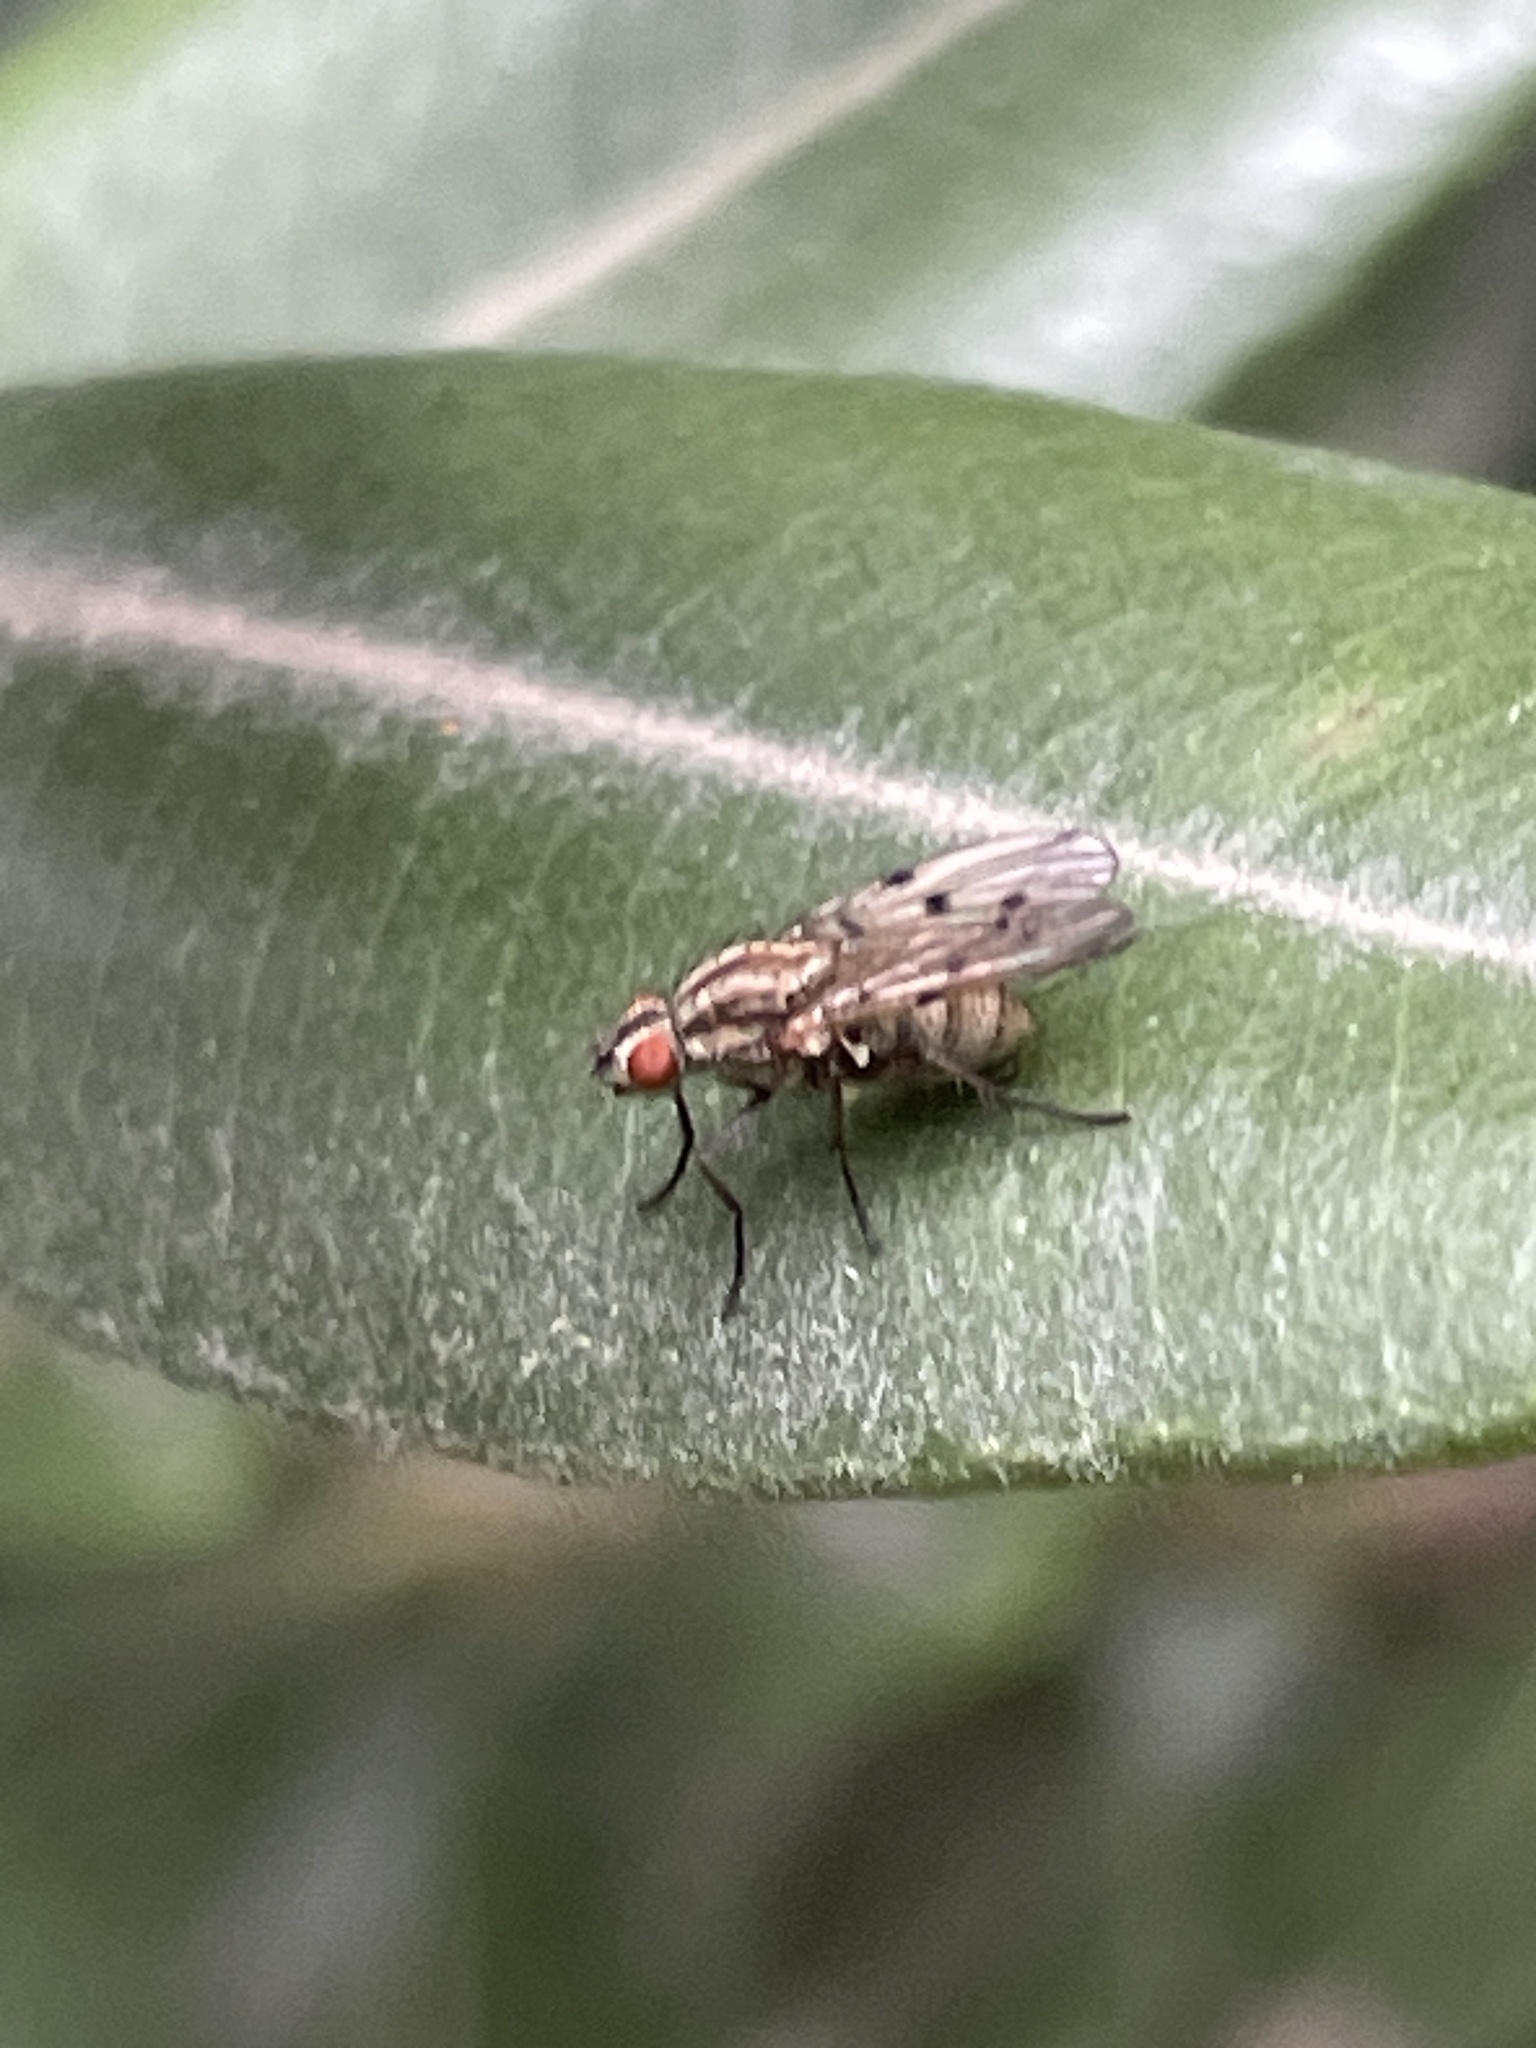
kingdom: Animalia
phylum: Arthropoda
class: Insecta
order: Diptera
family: Anthomyiidae
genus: Anthomyia
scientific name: Anthomyia punctipennis
